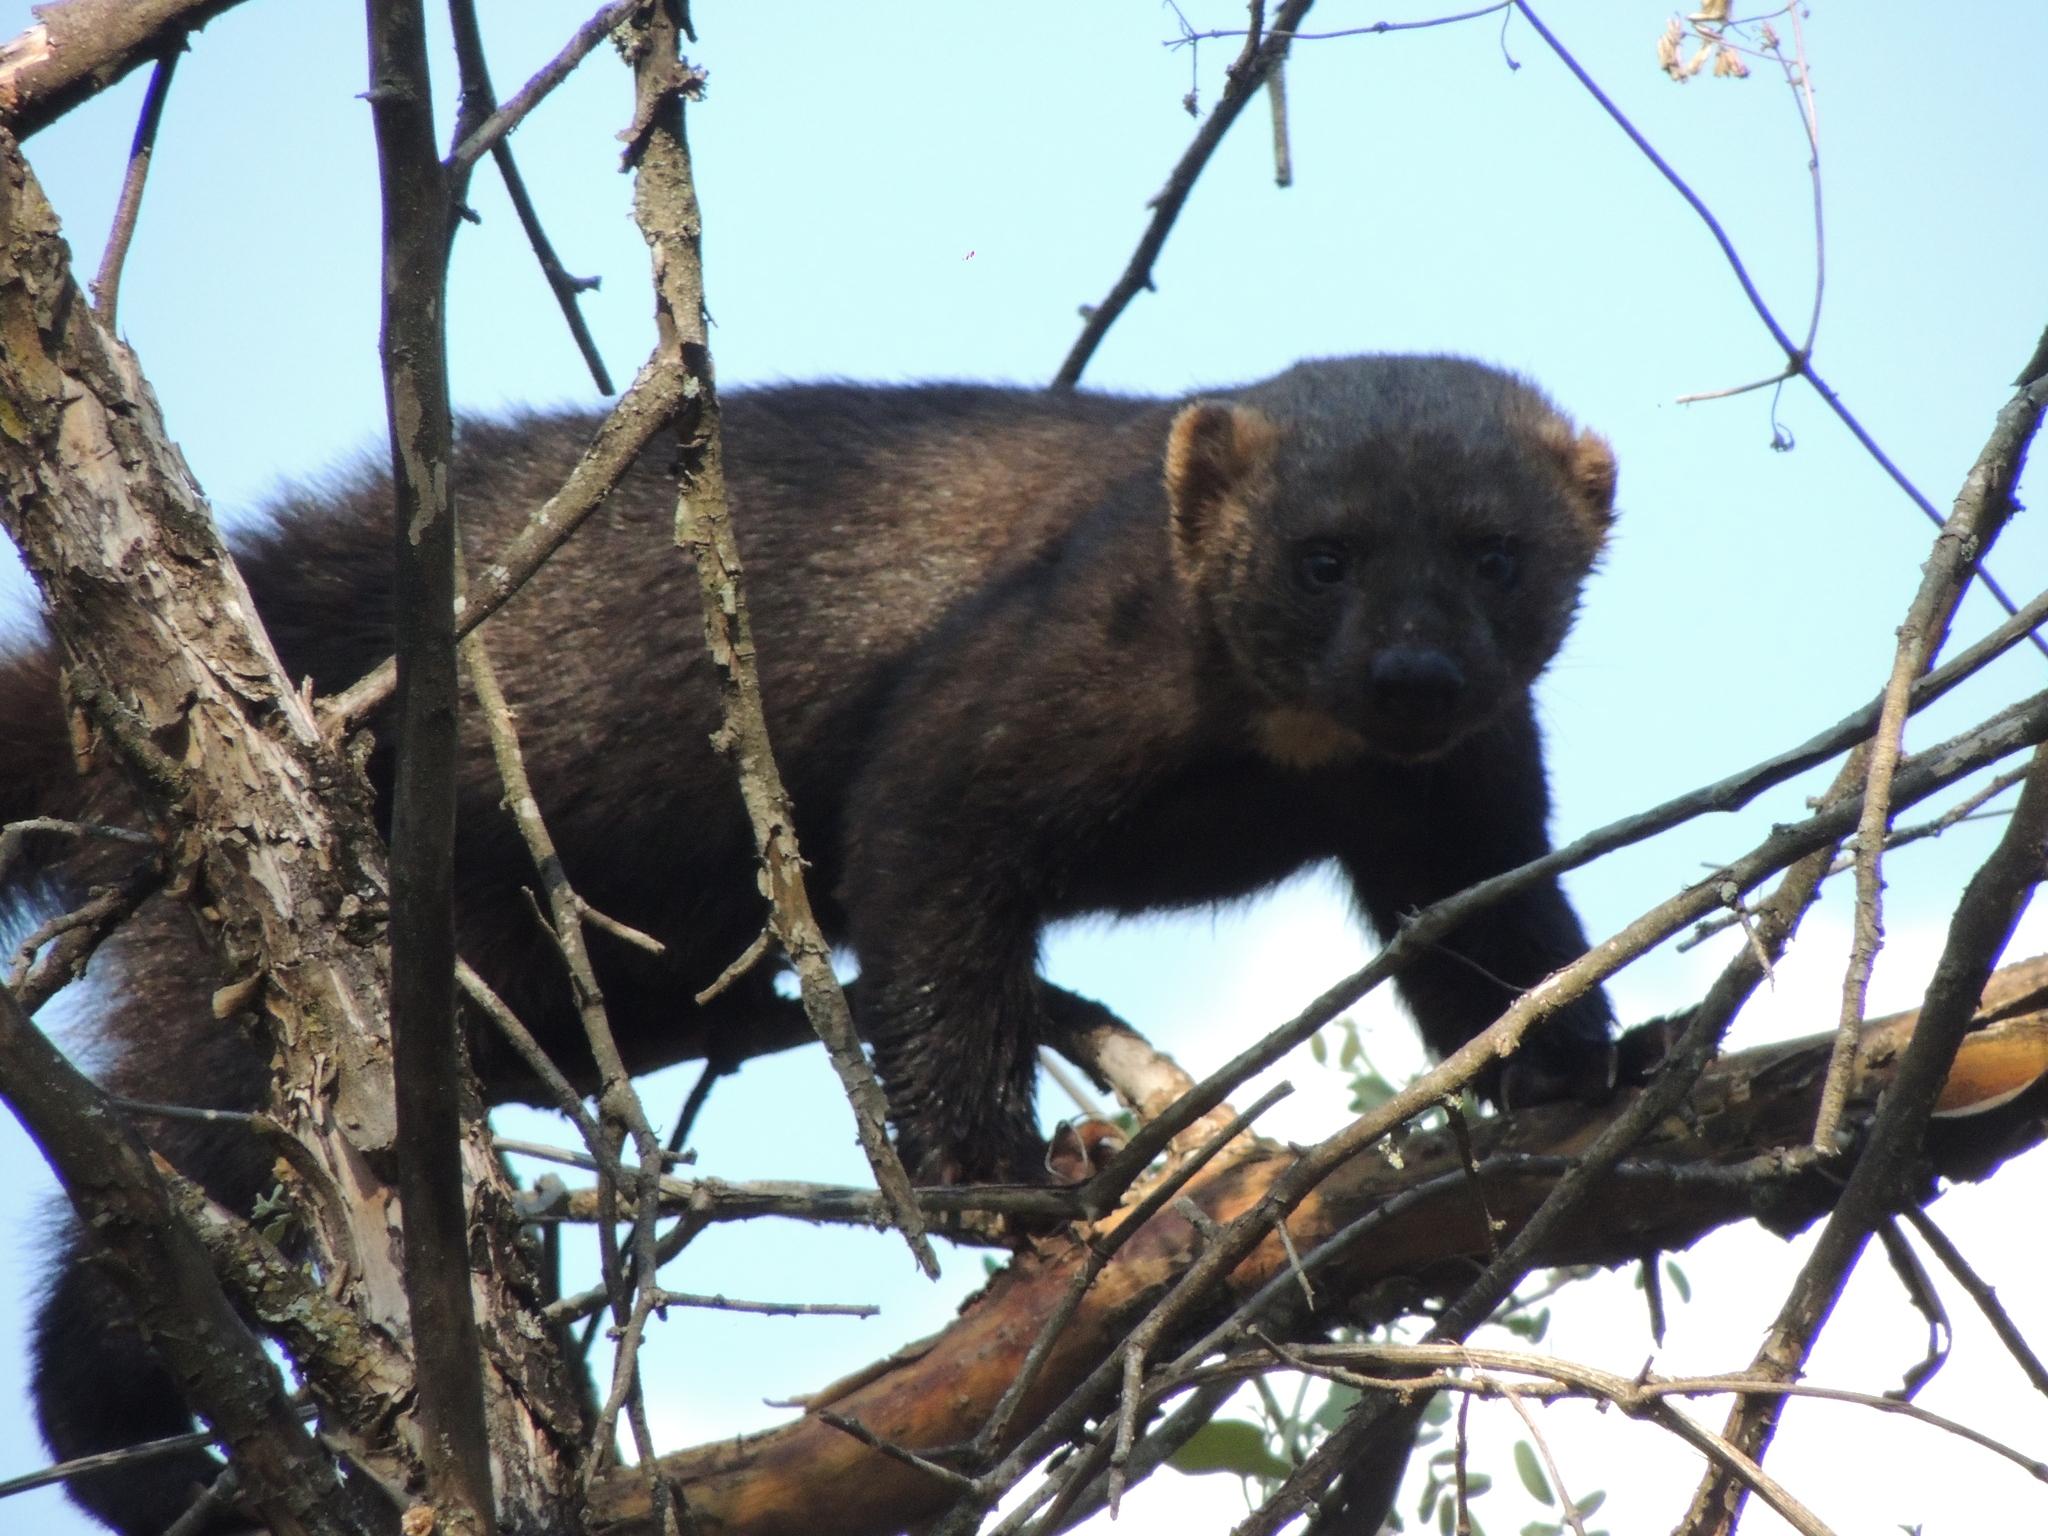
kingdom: Animalia
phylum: Chordata
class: Mammalia
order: Carnivora
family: Mustelidae
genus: Eira
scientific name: Eira barbara
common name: Tayra
